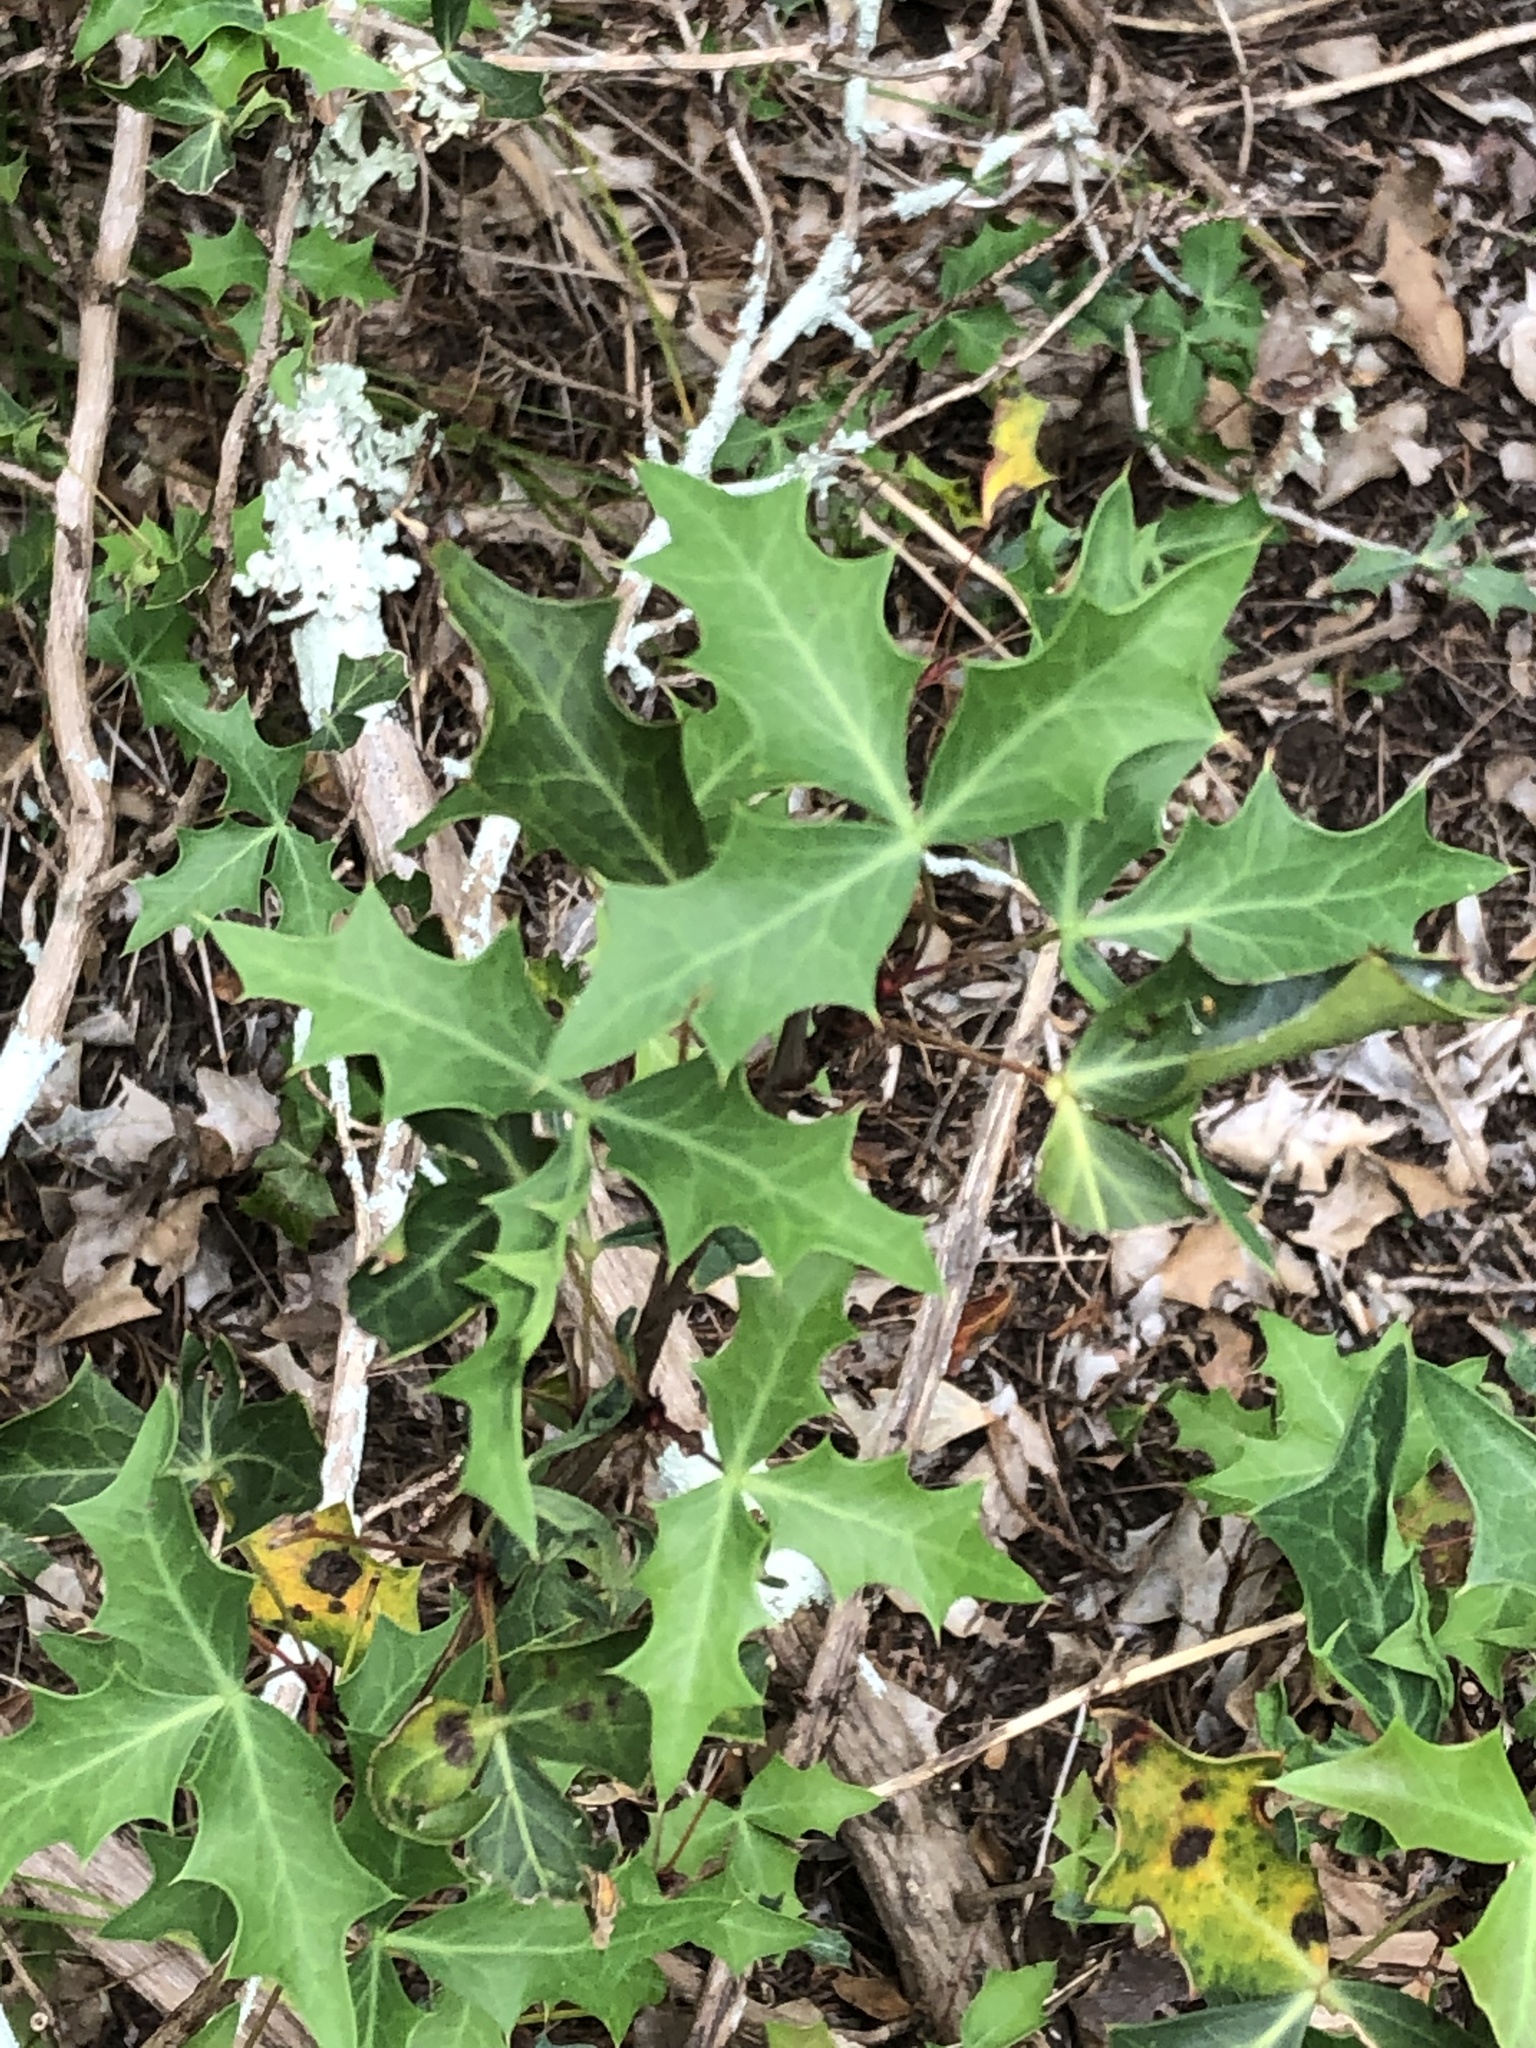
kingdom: Plantae
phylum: Tracheophyta
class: Magnoliopsida
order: Ranunculales
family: Berberidaceae
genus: Alloberberis
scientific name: Alloberberis trifoliolata
